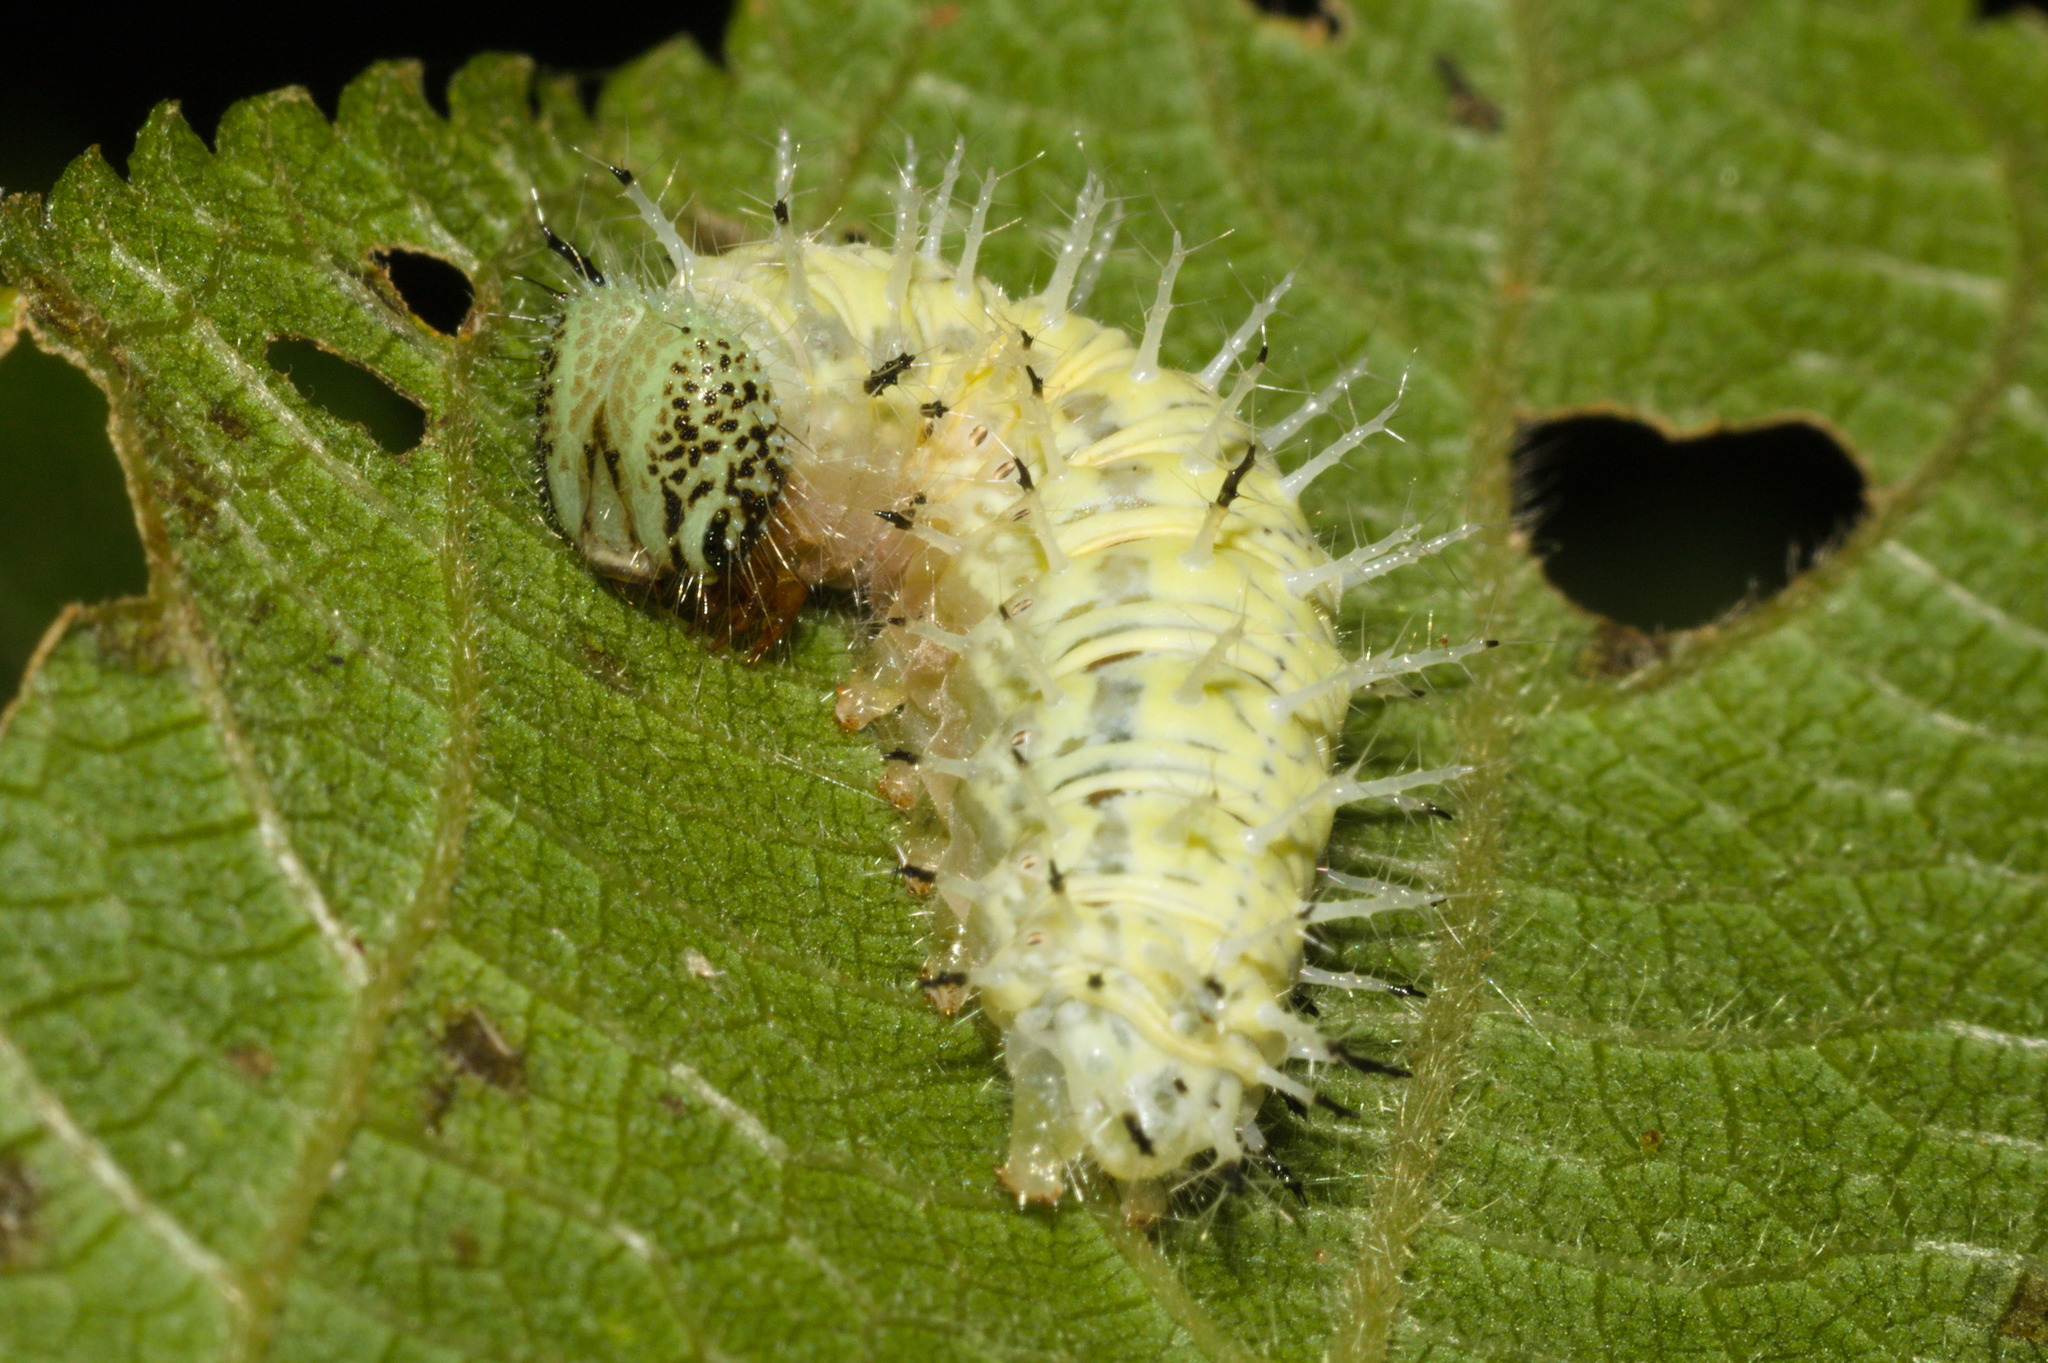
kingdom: Animalia
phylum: Arthropoda
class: Insecta
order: Lepidoptera
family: Nymphalidae
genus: Hypanartia
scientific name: Hypanartia bella
